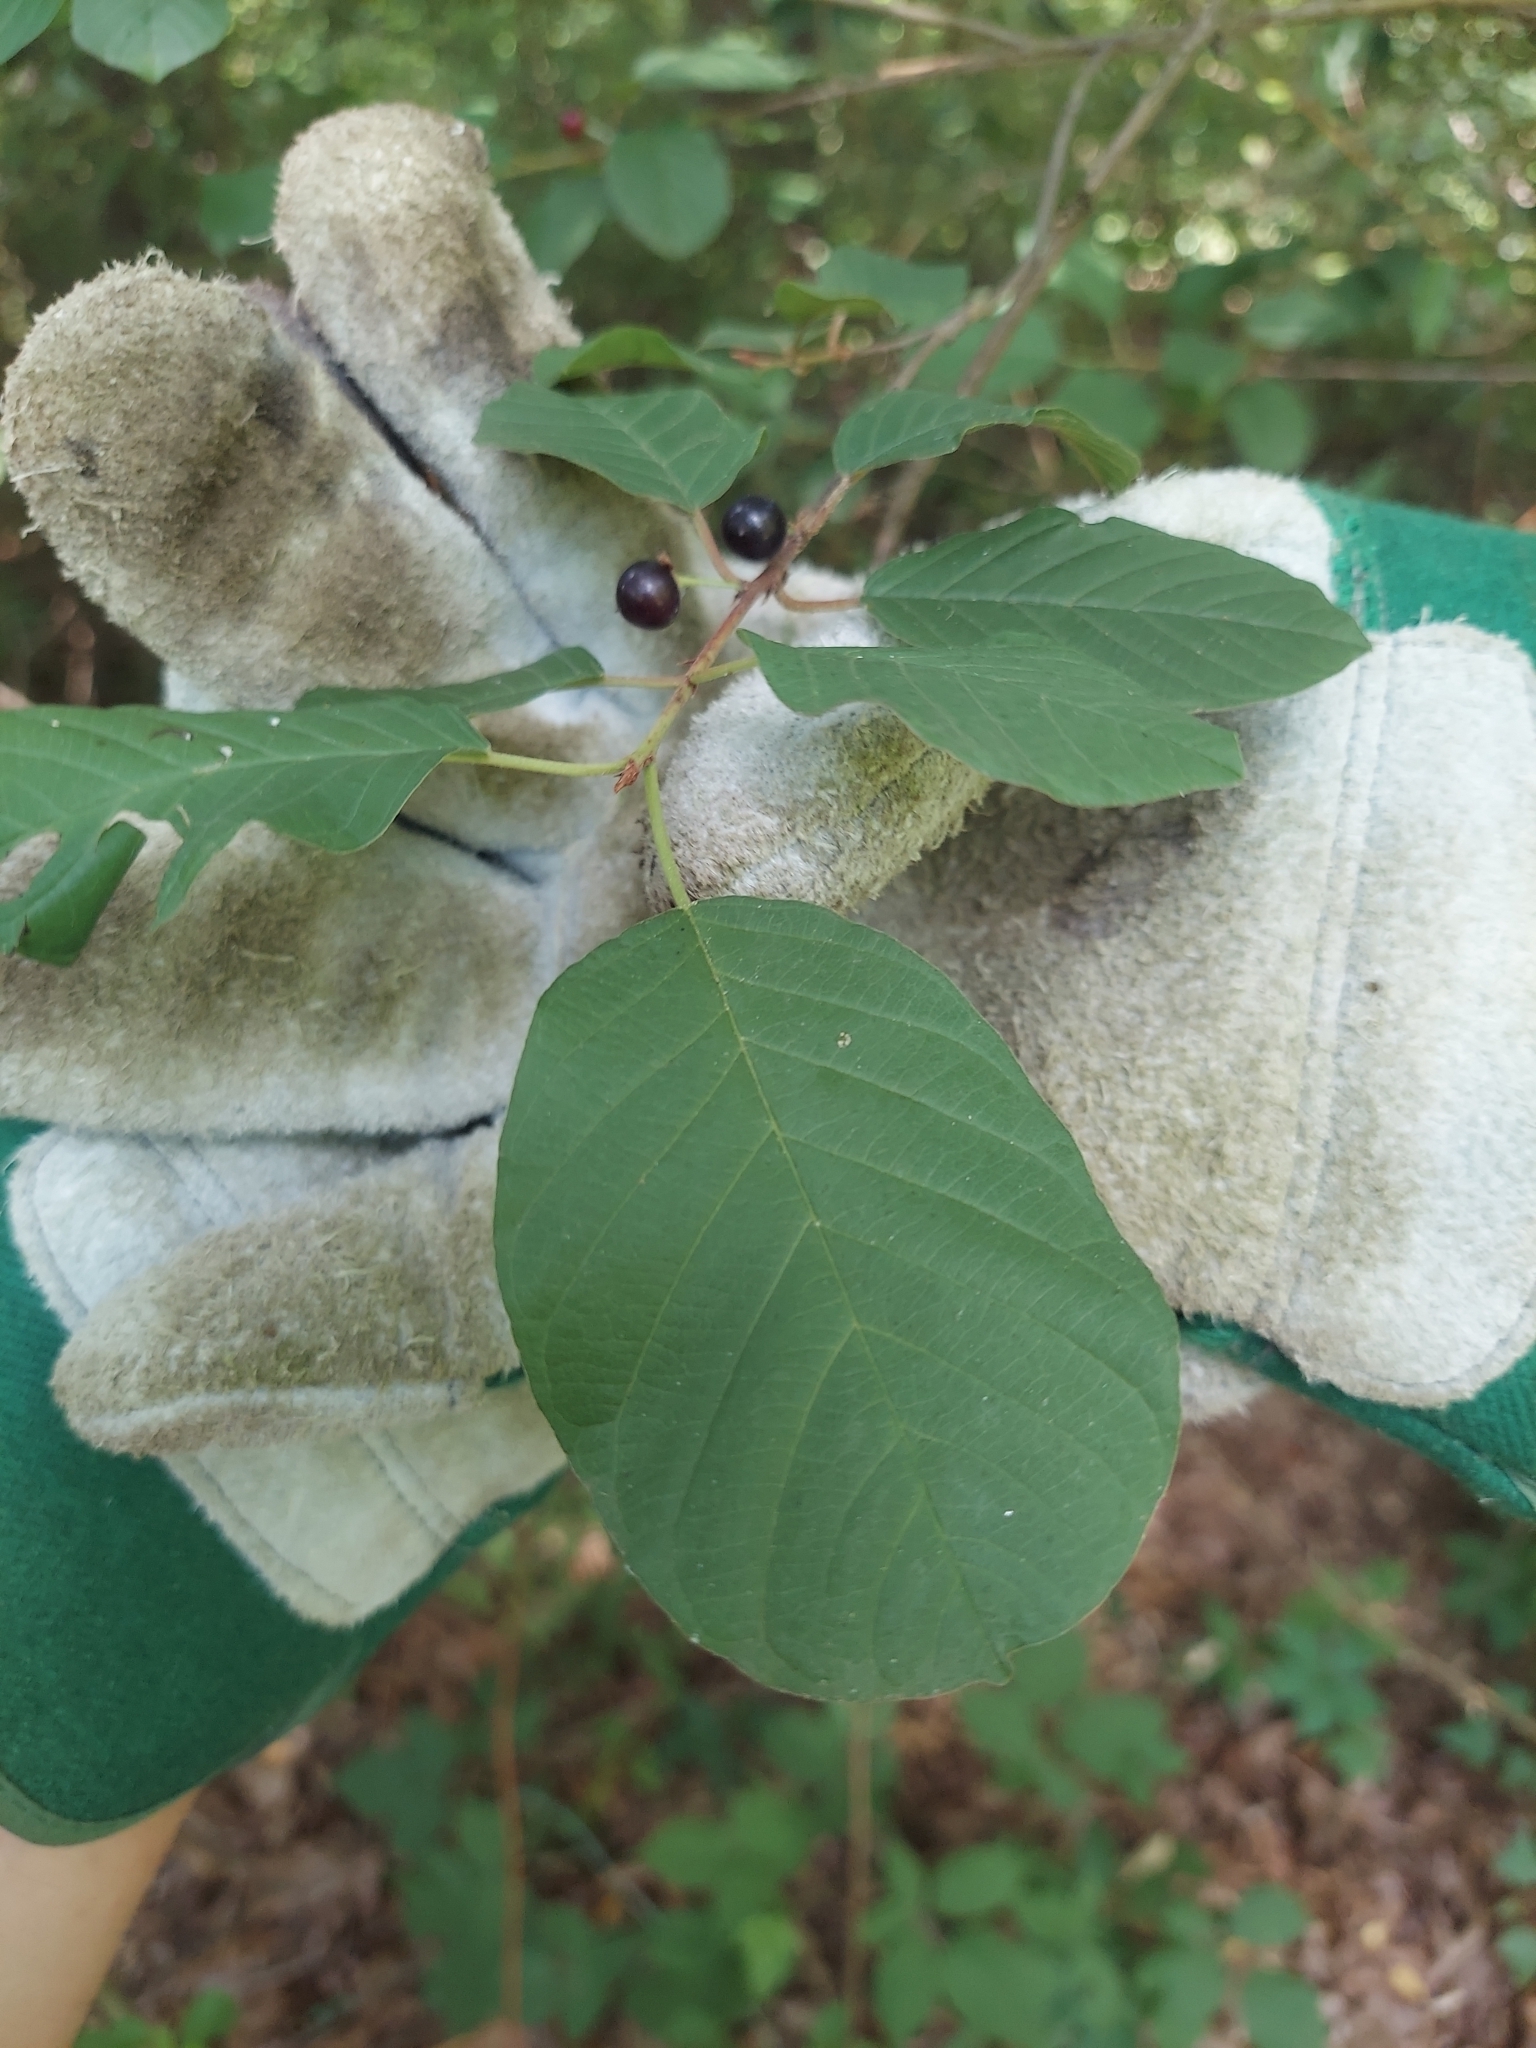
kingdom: Plantae
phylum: Tracheophyta
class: Magnoliopsida
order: Rosales
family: Rhamnaceae
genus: Frangula
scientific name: Frangula alnus
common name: Alder buckthorn
